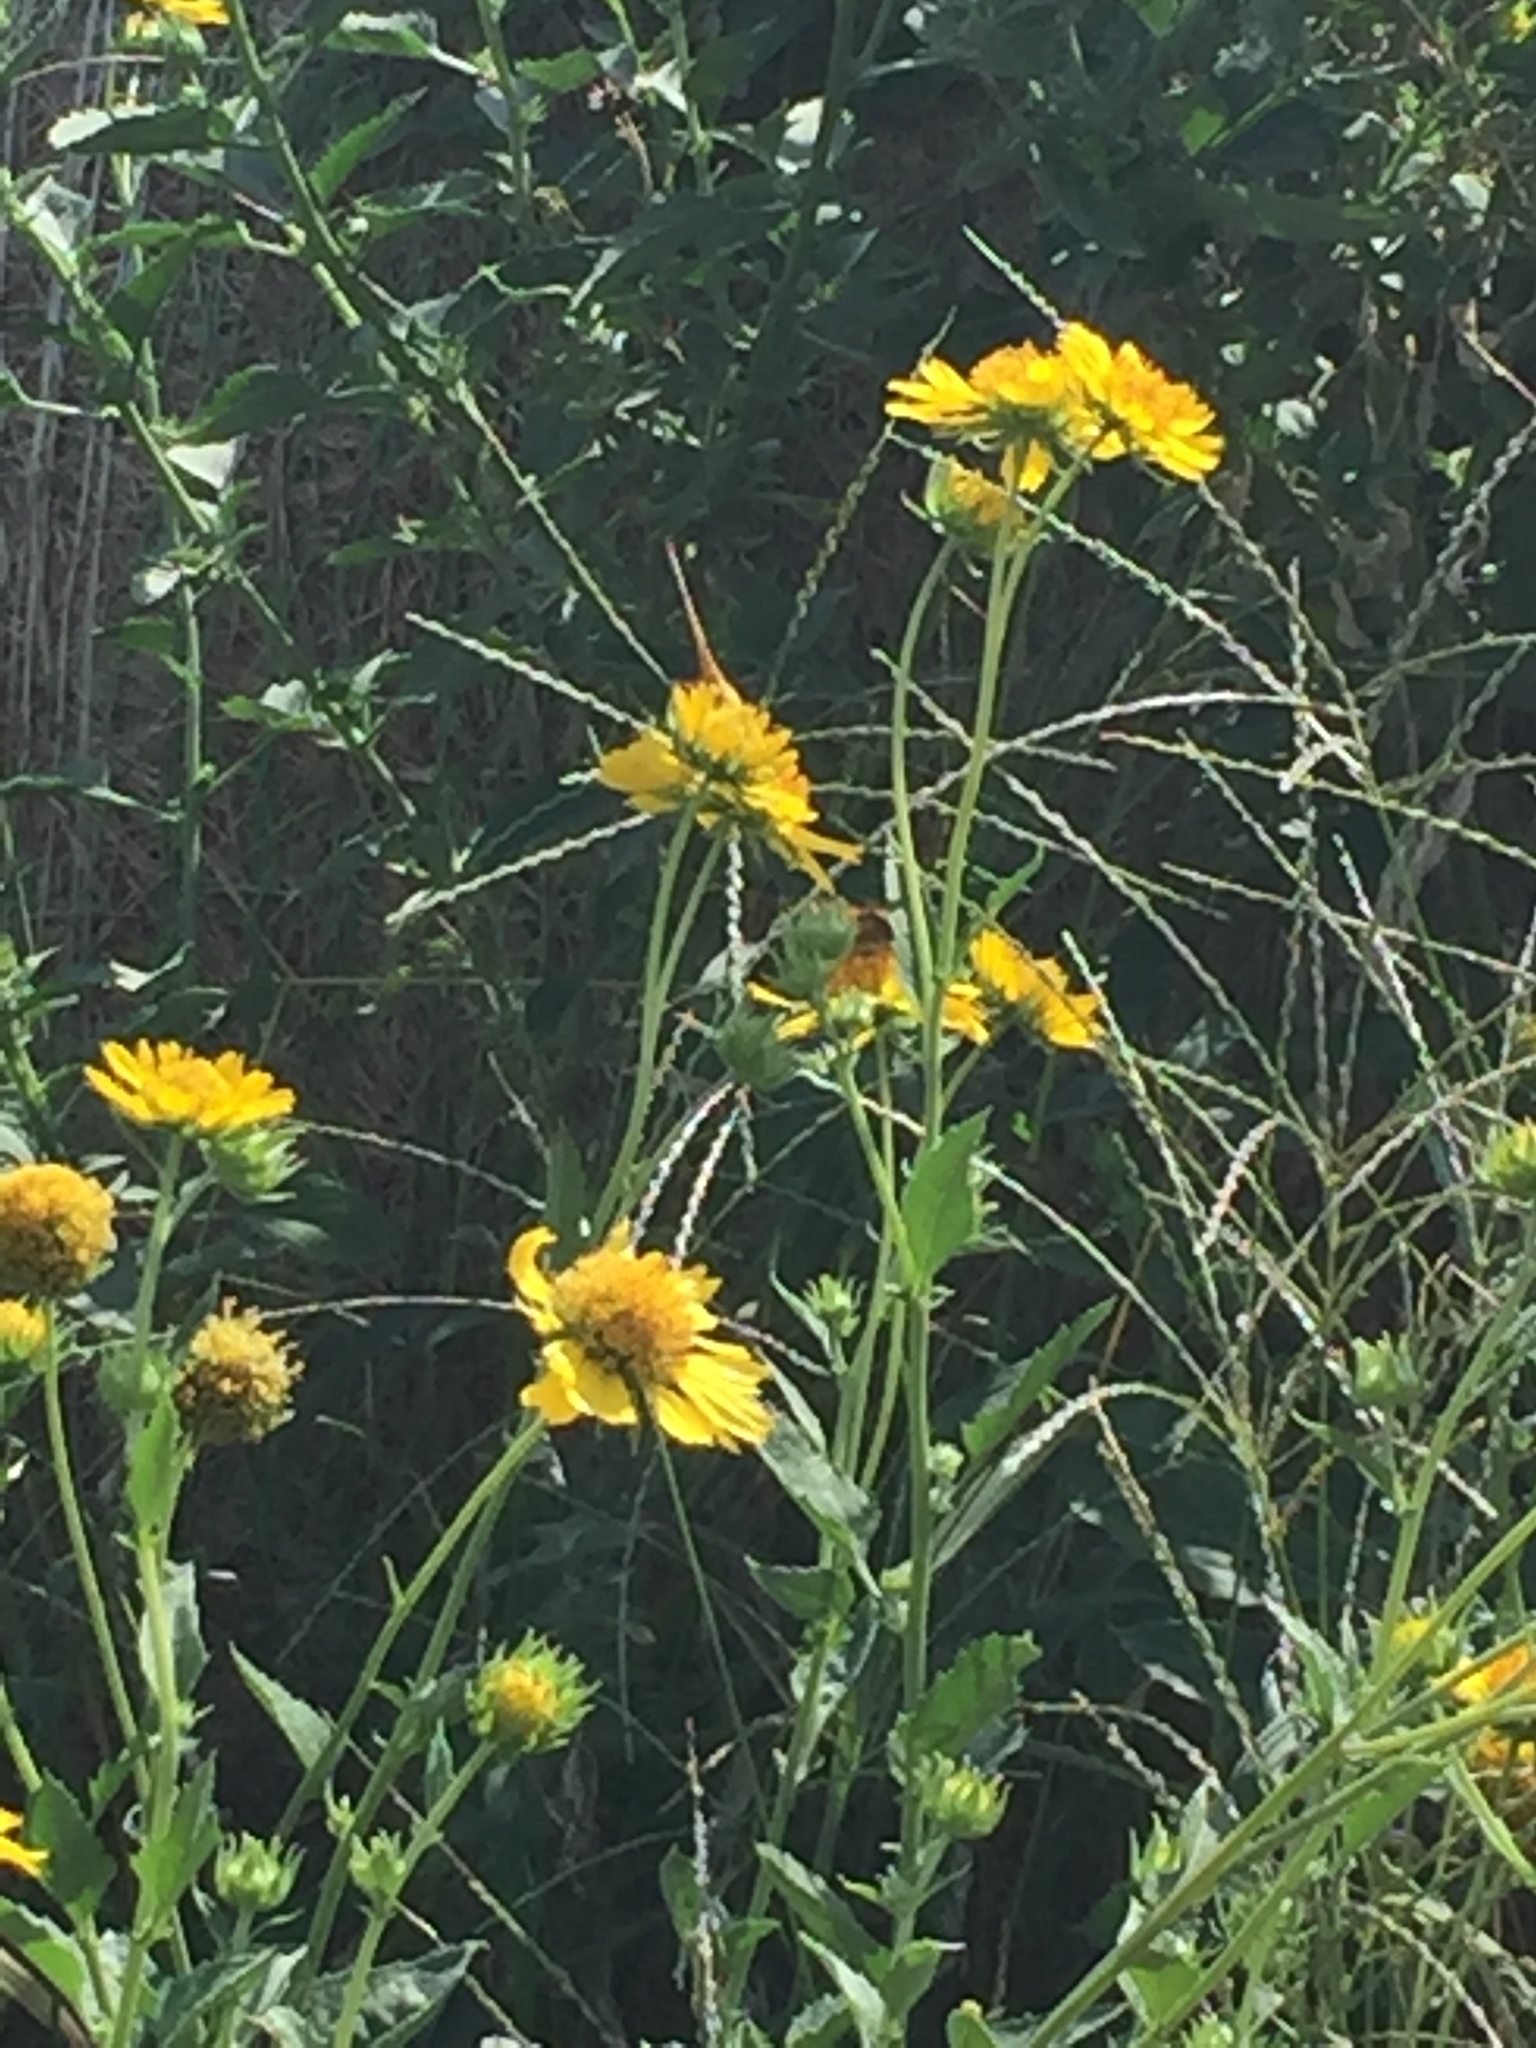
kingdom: Animalia
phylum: Arthropoda
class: Insecta
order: Lepidoptera
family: Pieridae
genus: Colias
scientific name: Colias eurytheme
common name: Alfalfa butterfly
